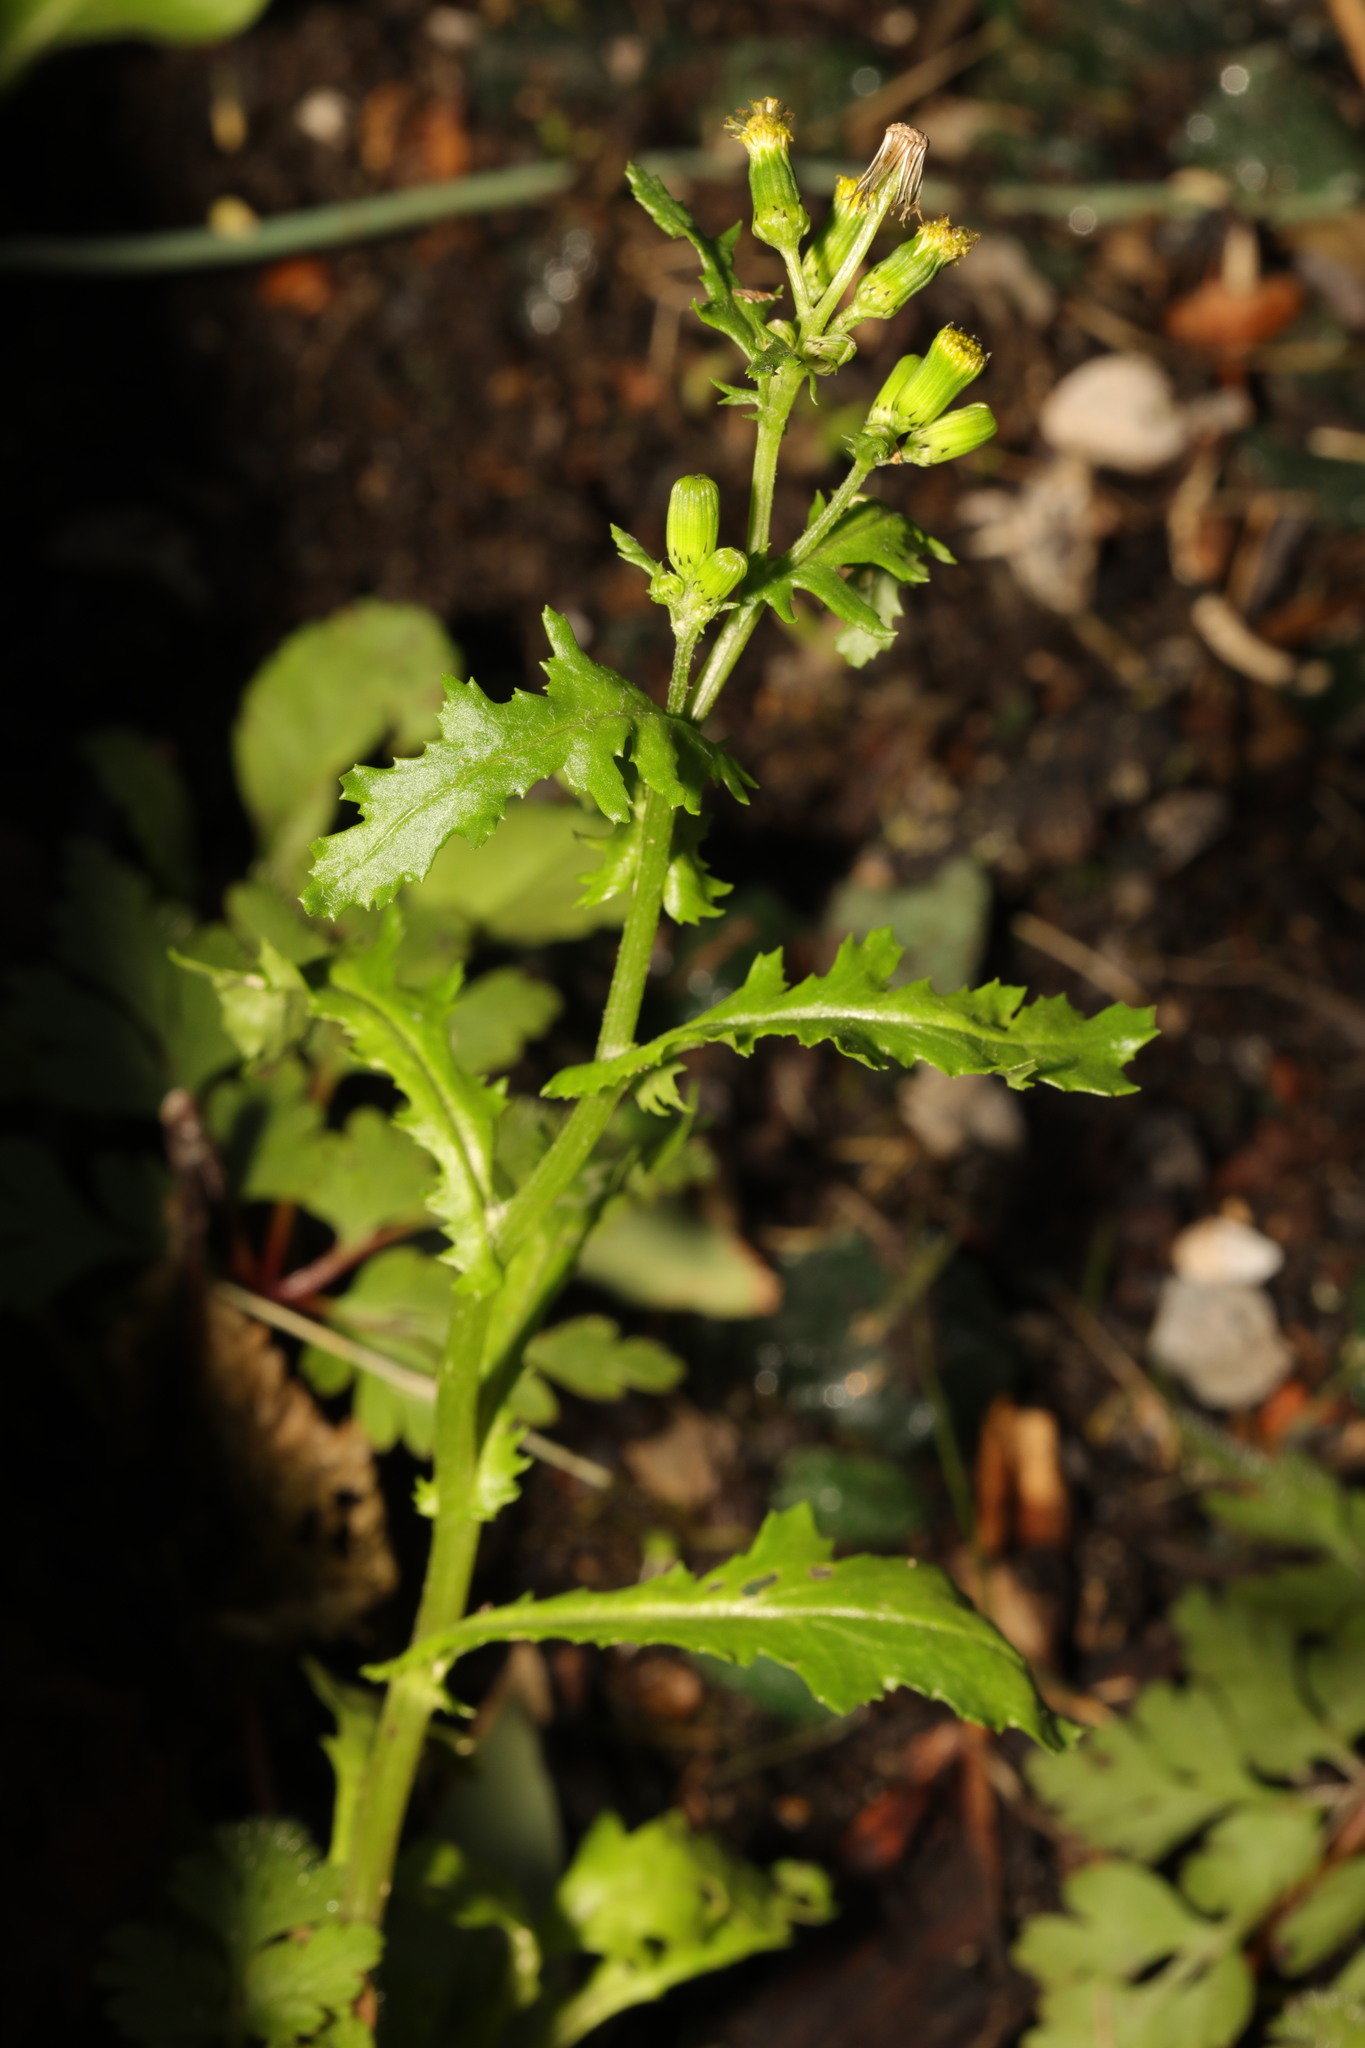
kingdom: Plantae
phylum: Tracheophyta
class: Magnoliopsida
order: Asterales
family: Asteraceae
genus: Senecio
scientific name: Senecio vulgaris
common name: Old-man-in-the-spring
